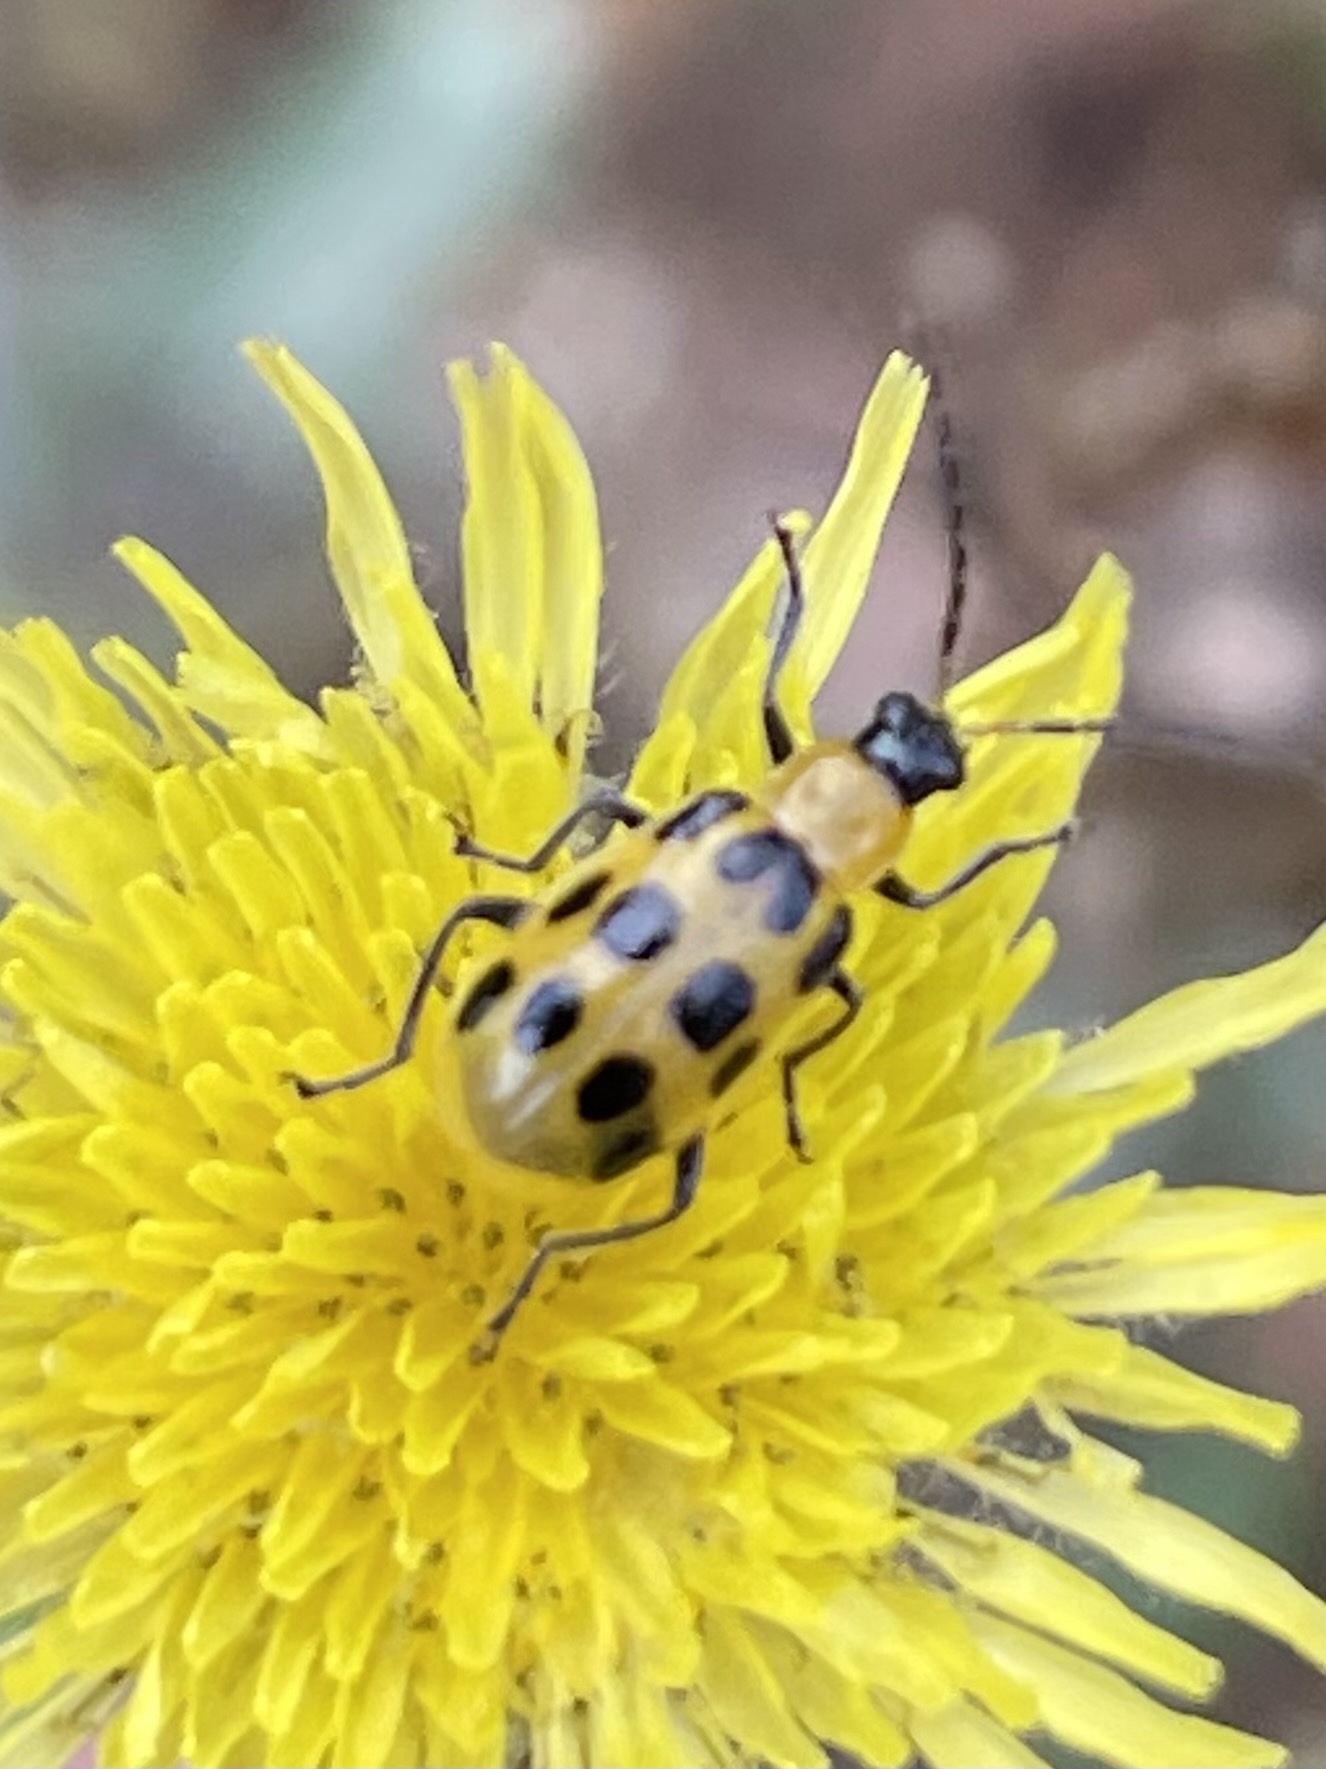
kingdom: Animalia
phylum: Arthropoda
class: Insecta
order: Coleoptera
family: Chrysomelidae
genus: Diabrotica
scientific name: Diabrotica undecimpunctata
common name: Spotted cucumber beetle
